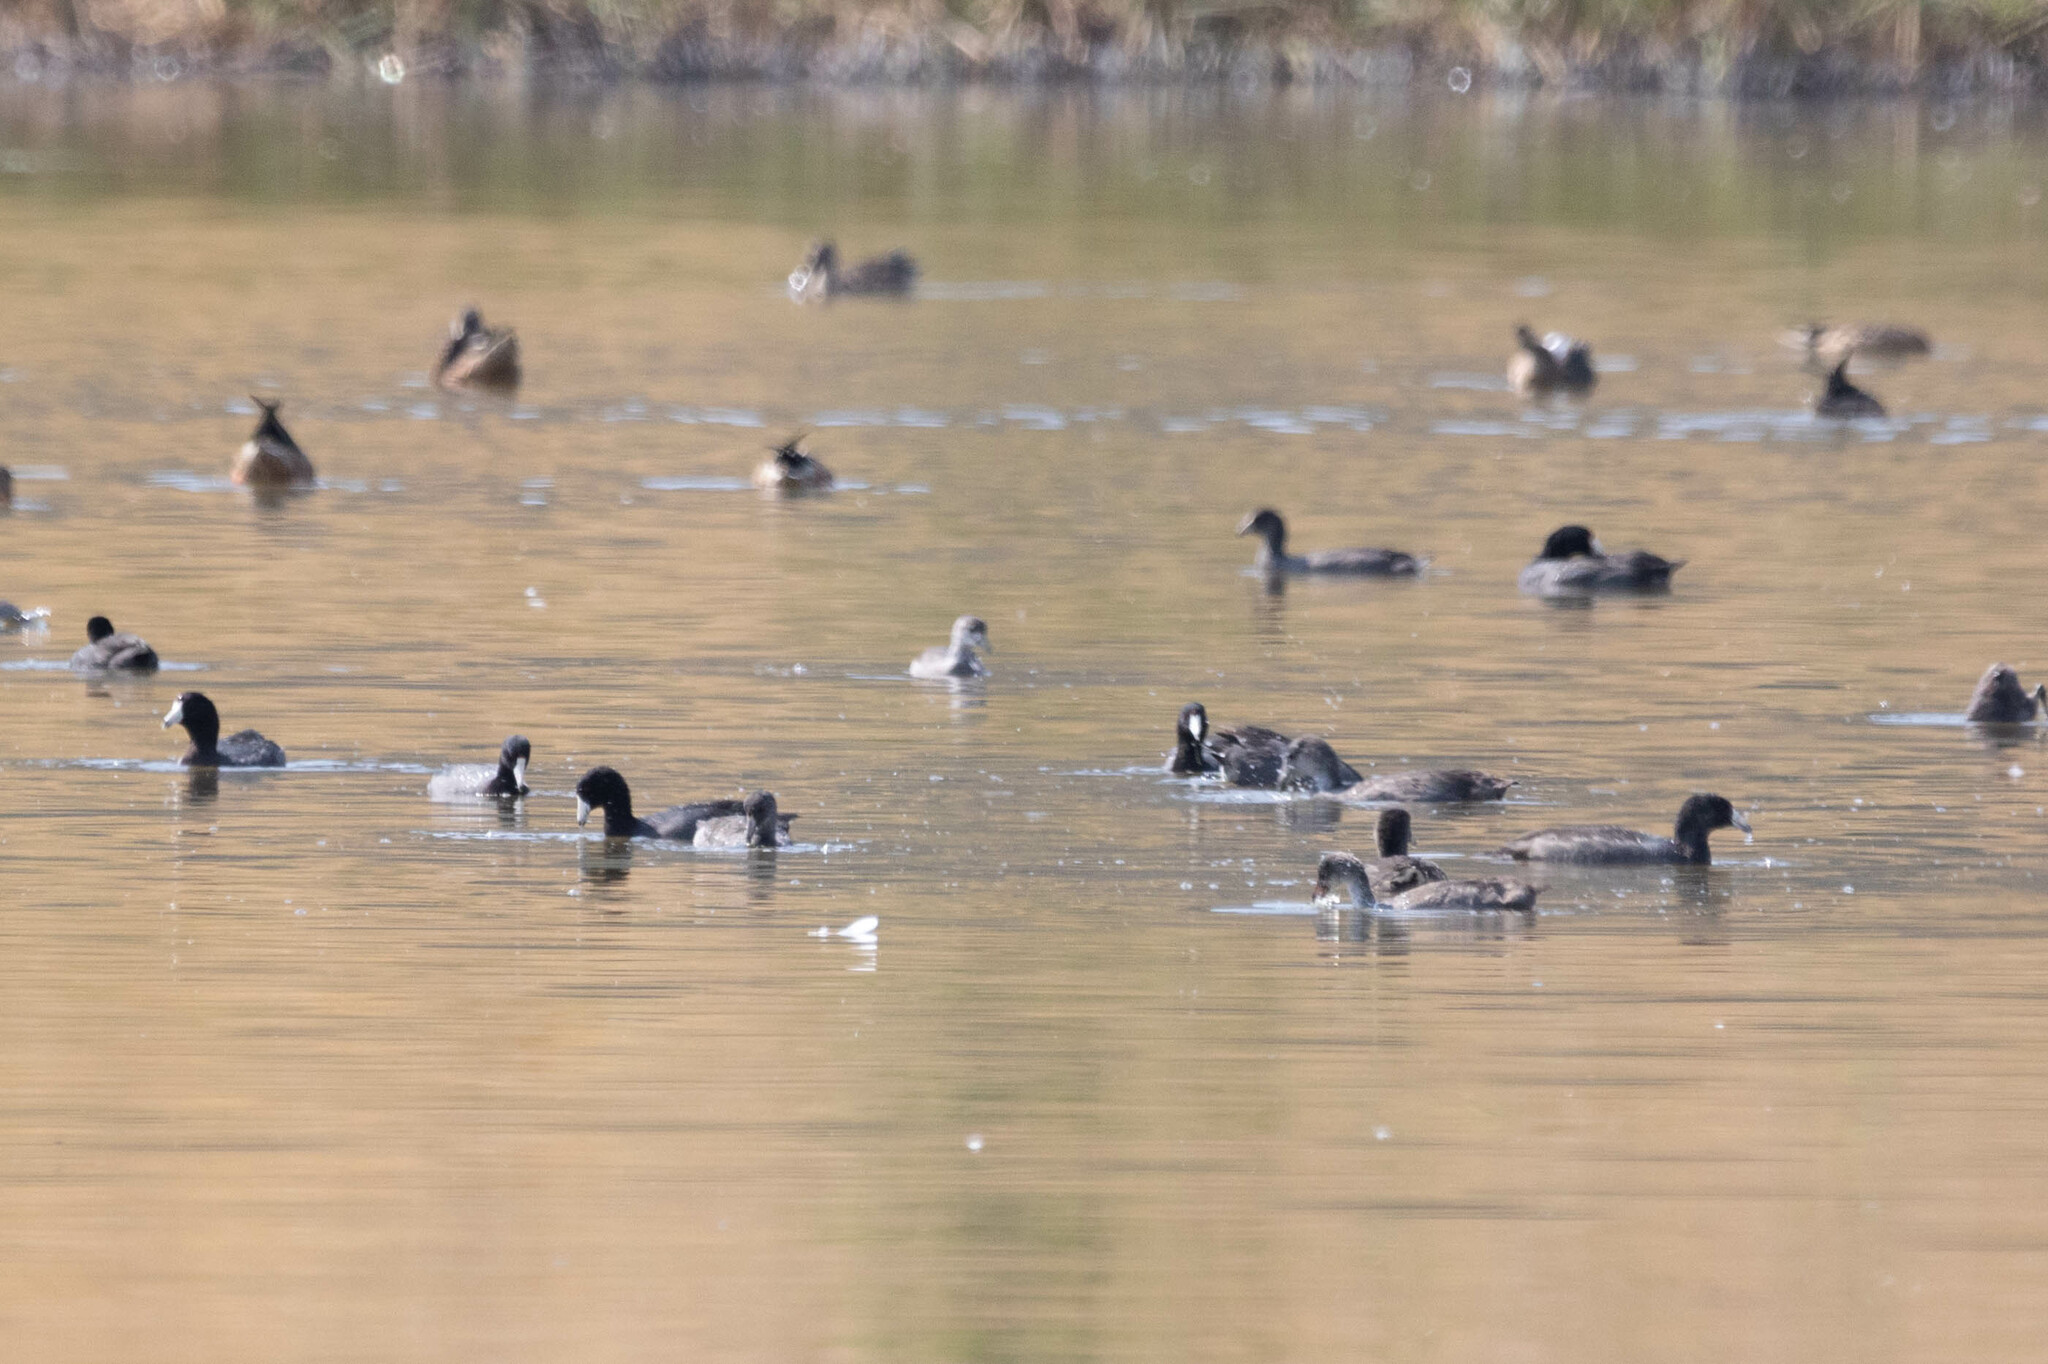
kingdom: Animalia
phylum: Chordata
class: Aves
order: Gruiformes
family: Rallidae
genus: Fulica
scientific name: Fulica americana
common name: American coot
